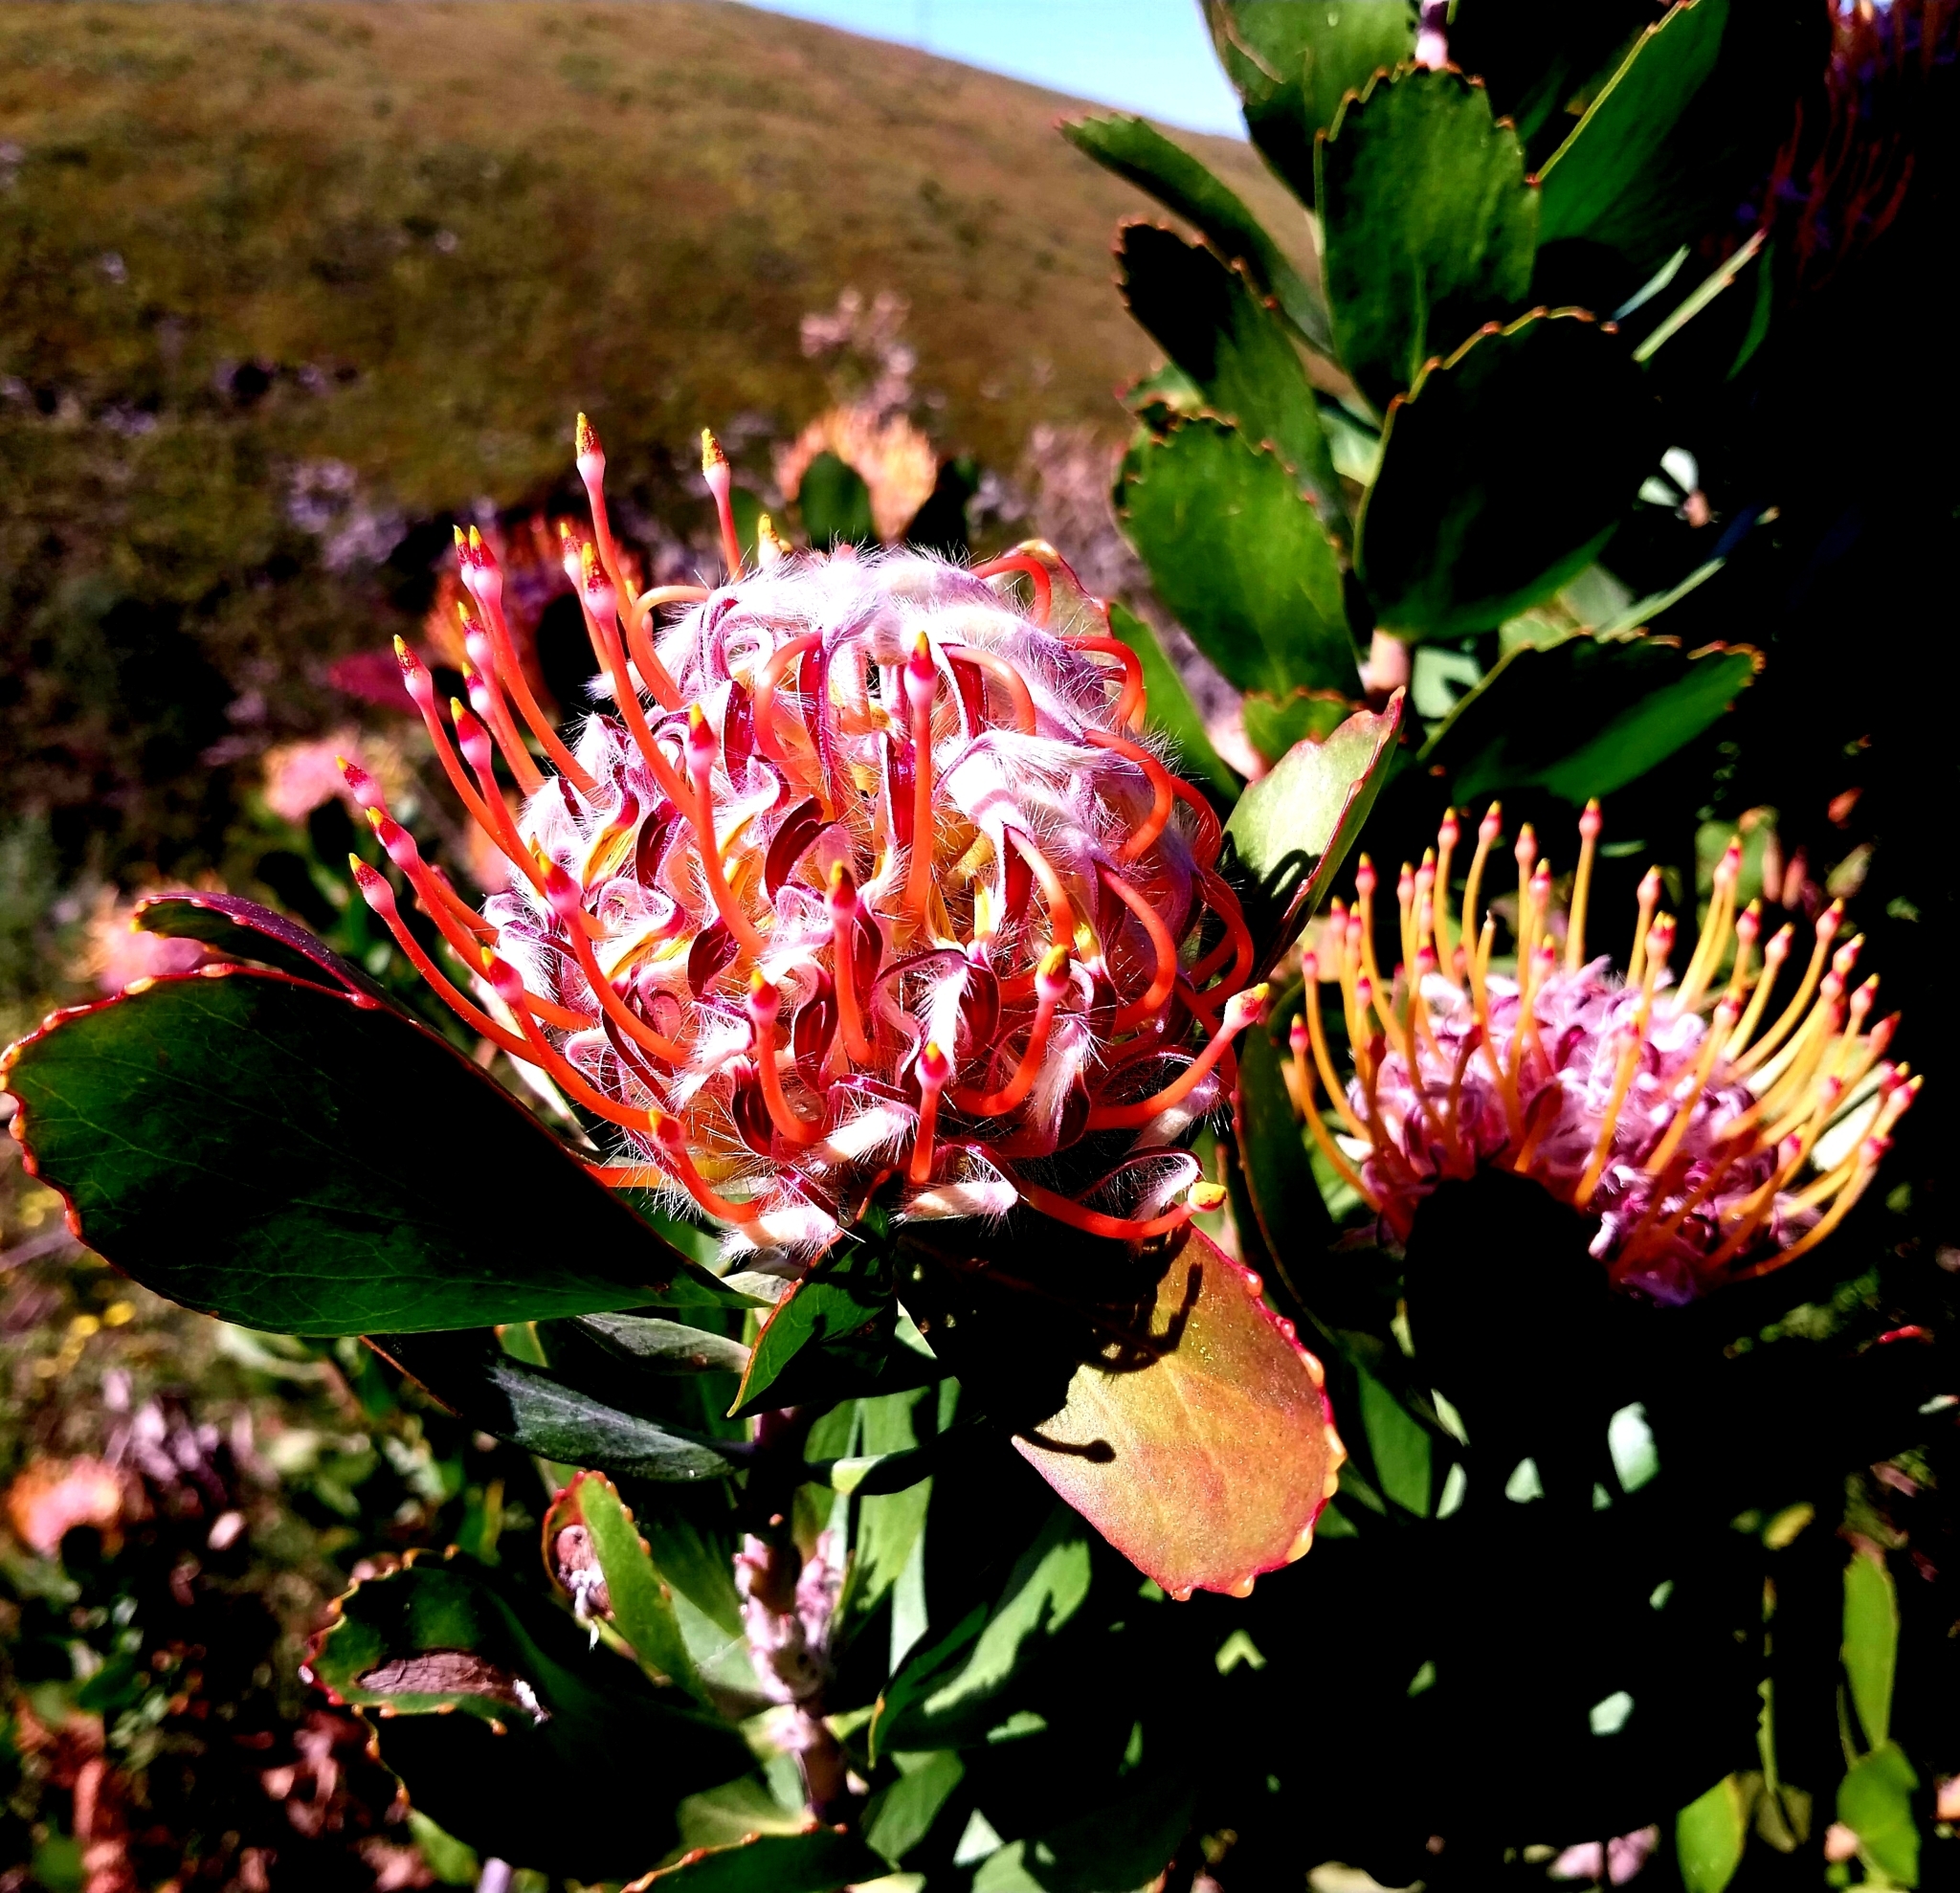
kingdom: Plantae
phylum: Tracheophyta
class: Magnoliopsida
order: Proteales
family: Proteaceae
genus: Leucospermum
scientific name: Leucospermum glabrum
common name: Outeniqua pincushion
